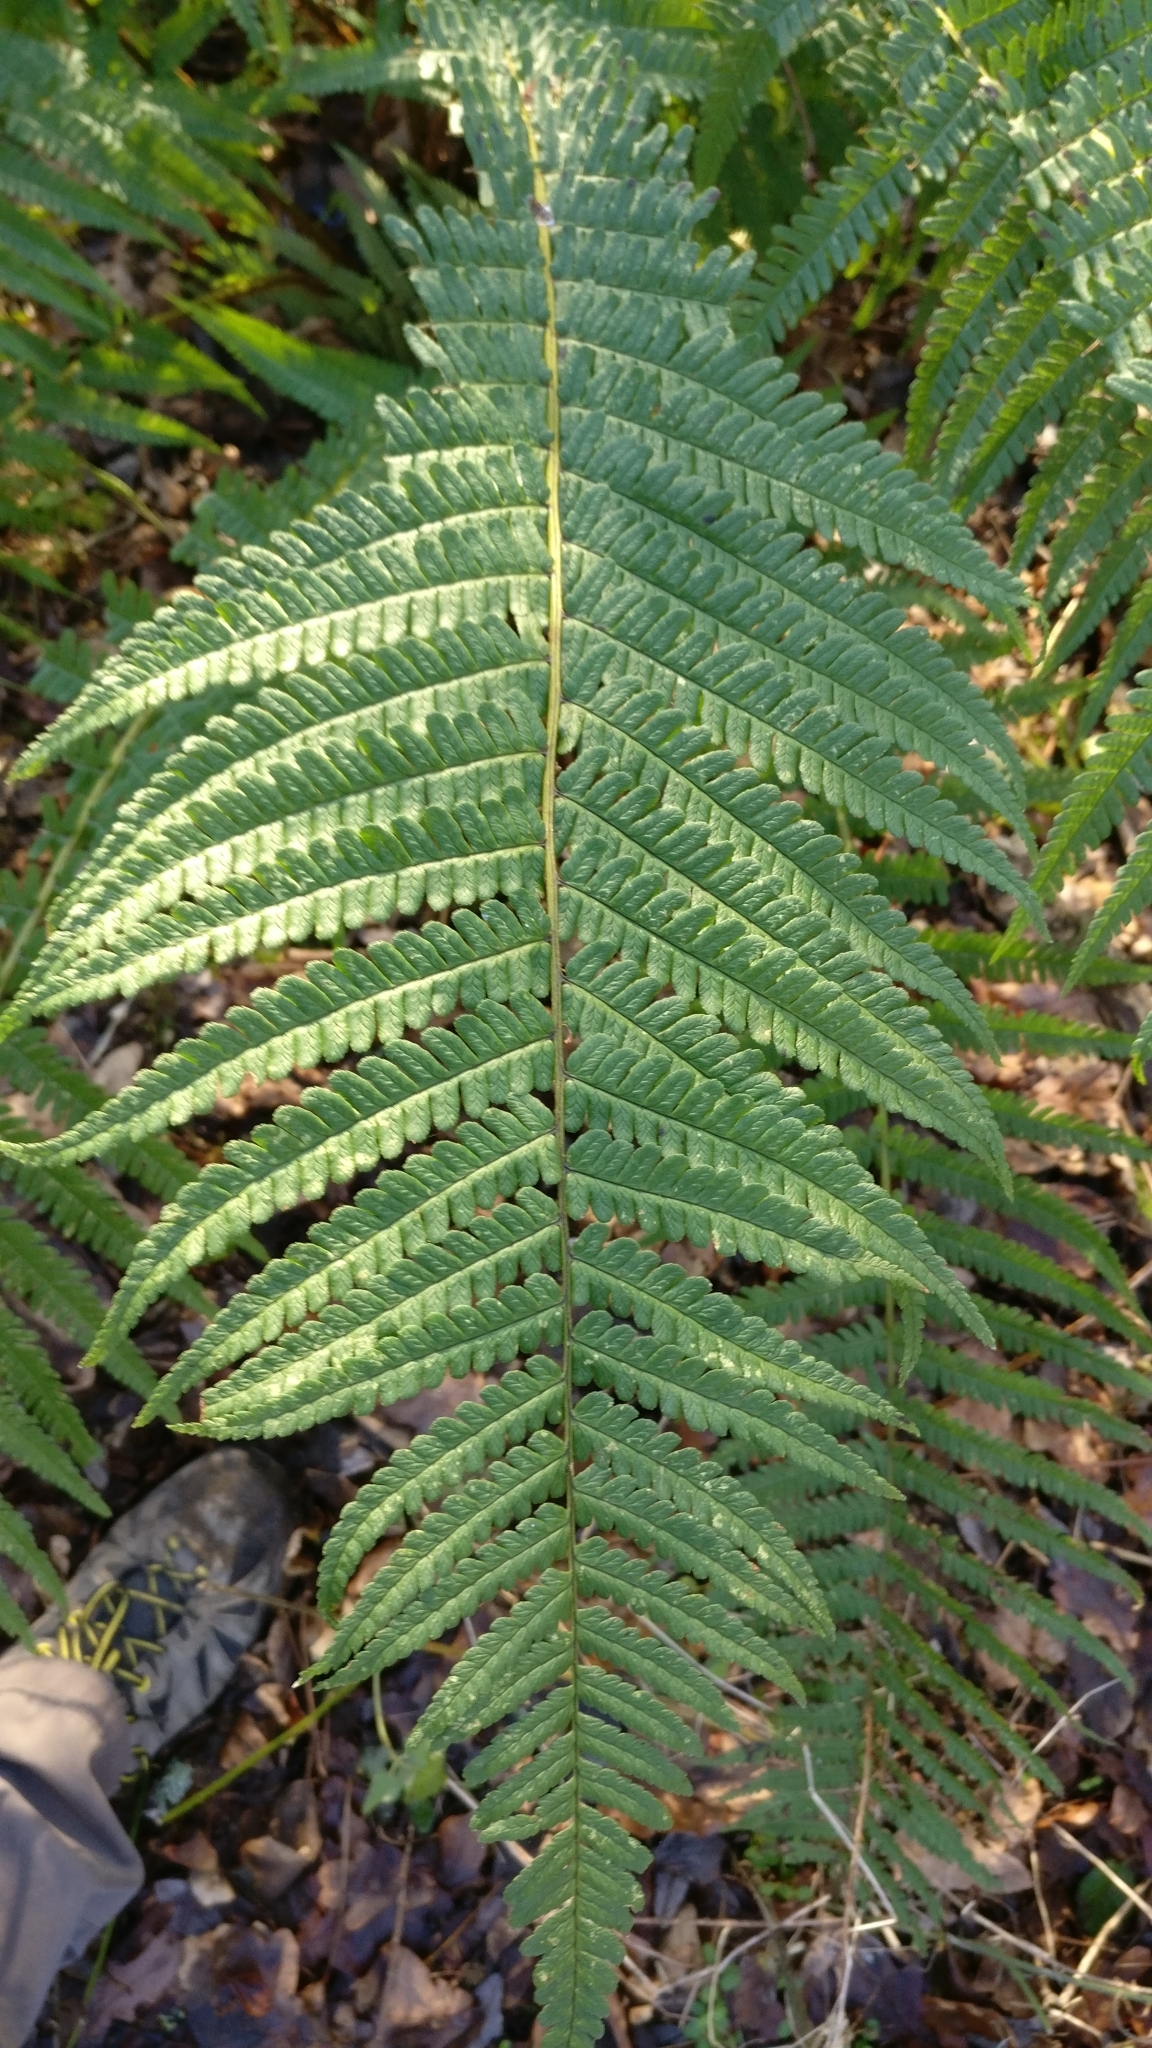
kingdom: Plantae
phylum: Tracheophyta
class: Polypodiopsida
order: Polypodiales
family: Dryopteridaceae
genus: Dryopteris
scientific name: Dryopteris affinis
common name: Scaly male fern
